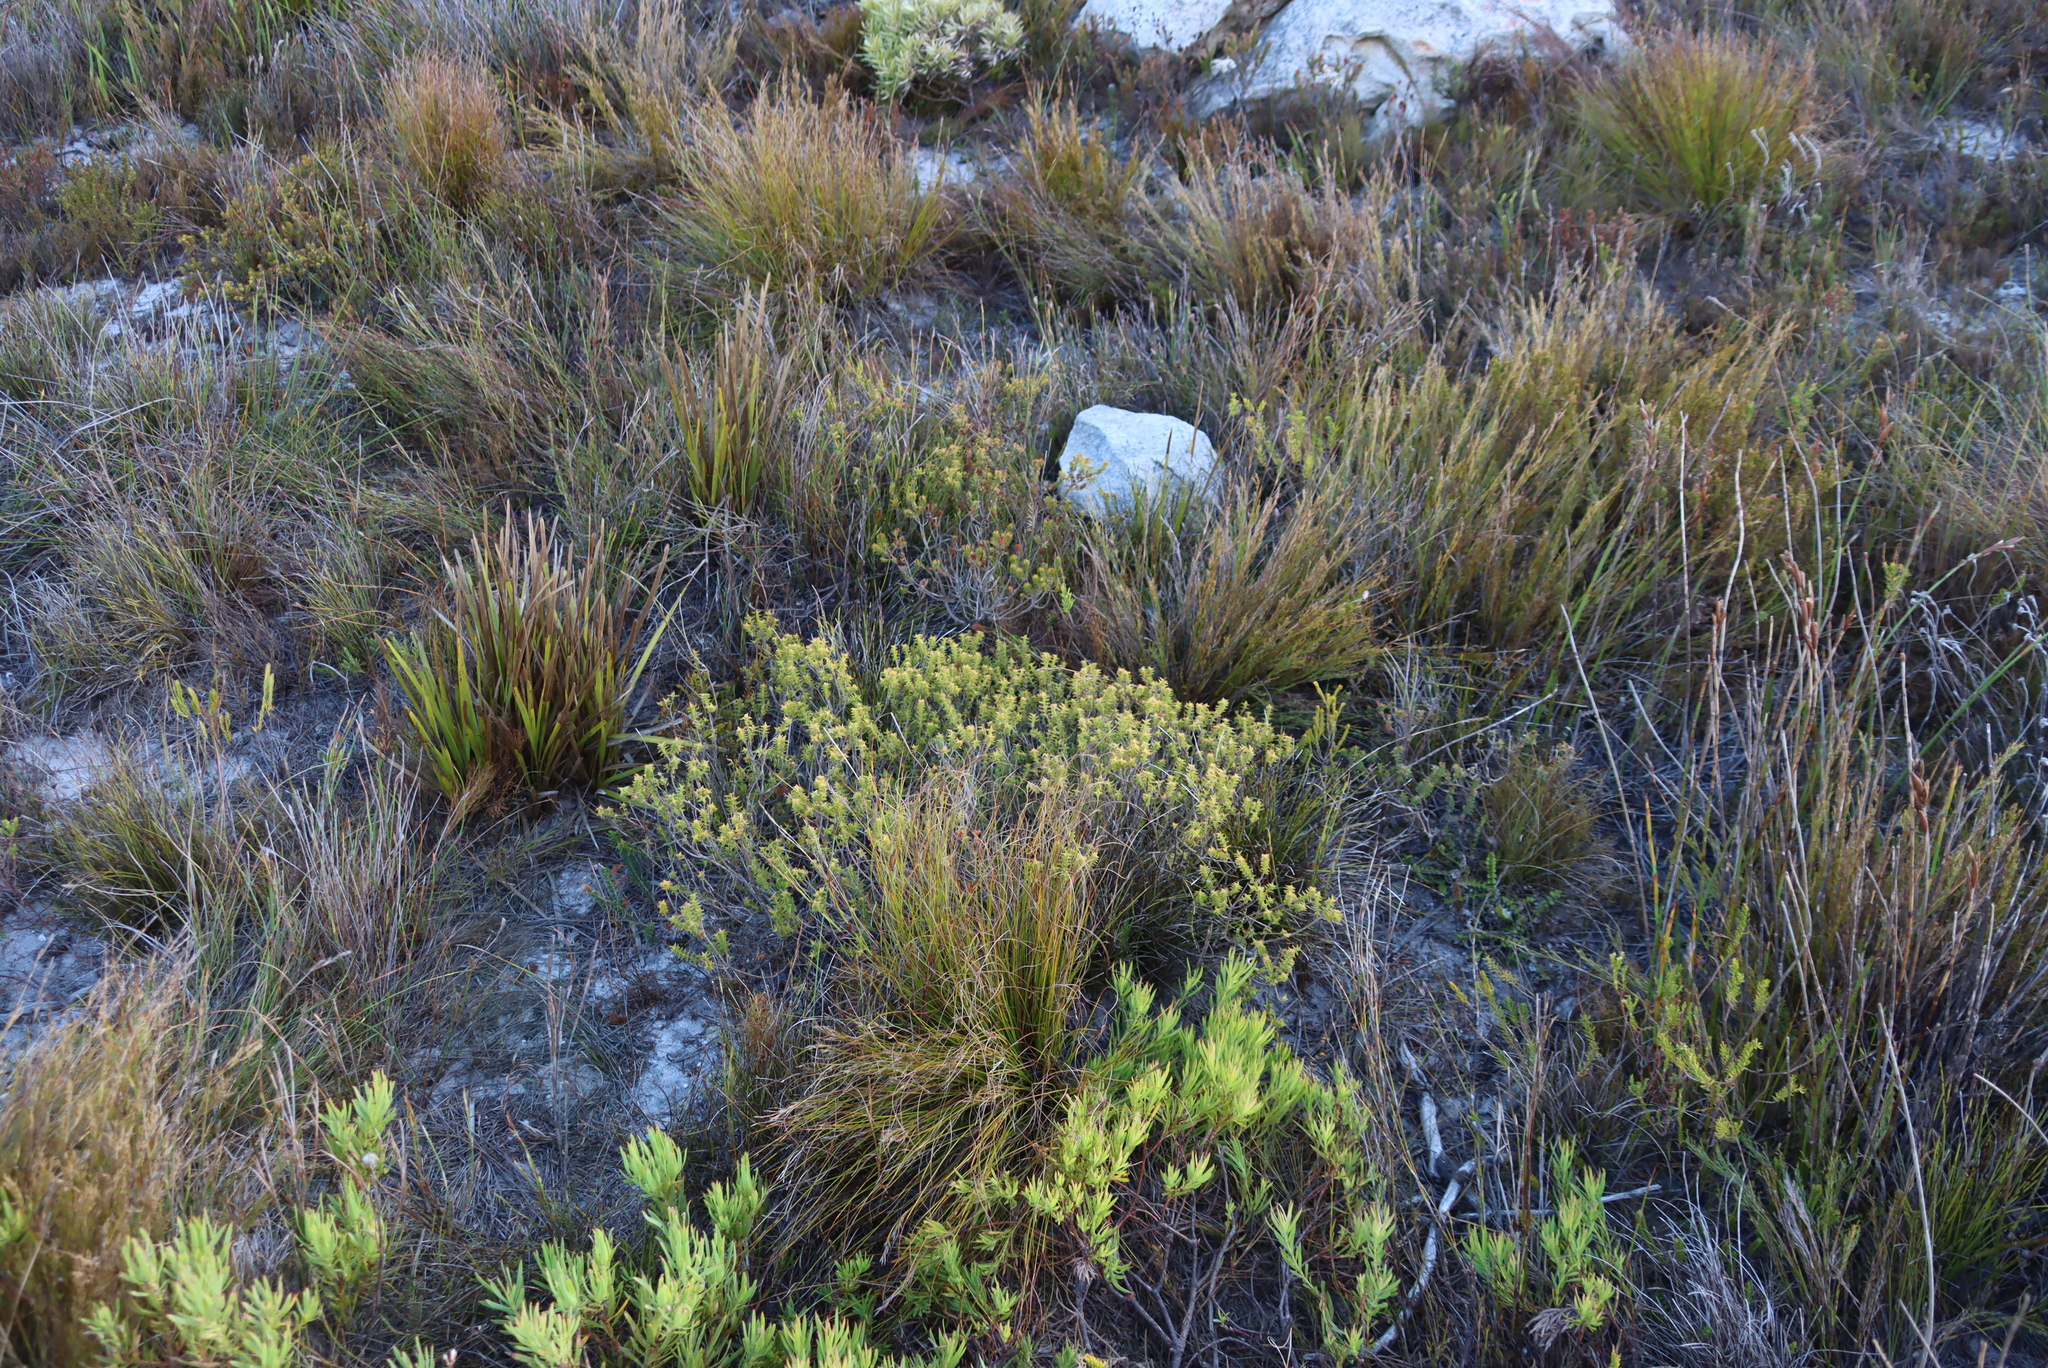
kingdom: Plantae
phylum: Tracheophyta
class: Magnoliopsida
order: Myrtales
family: Penaeaceae
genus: Penaea
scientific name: Penaea mucronata
